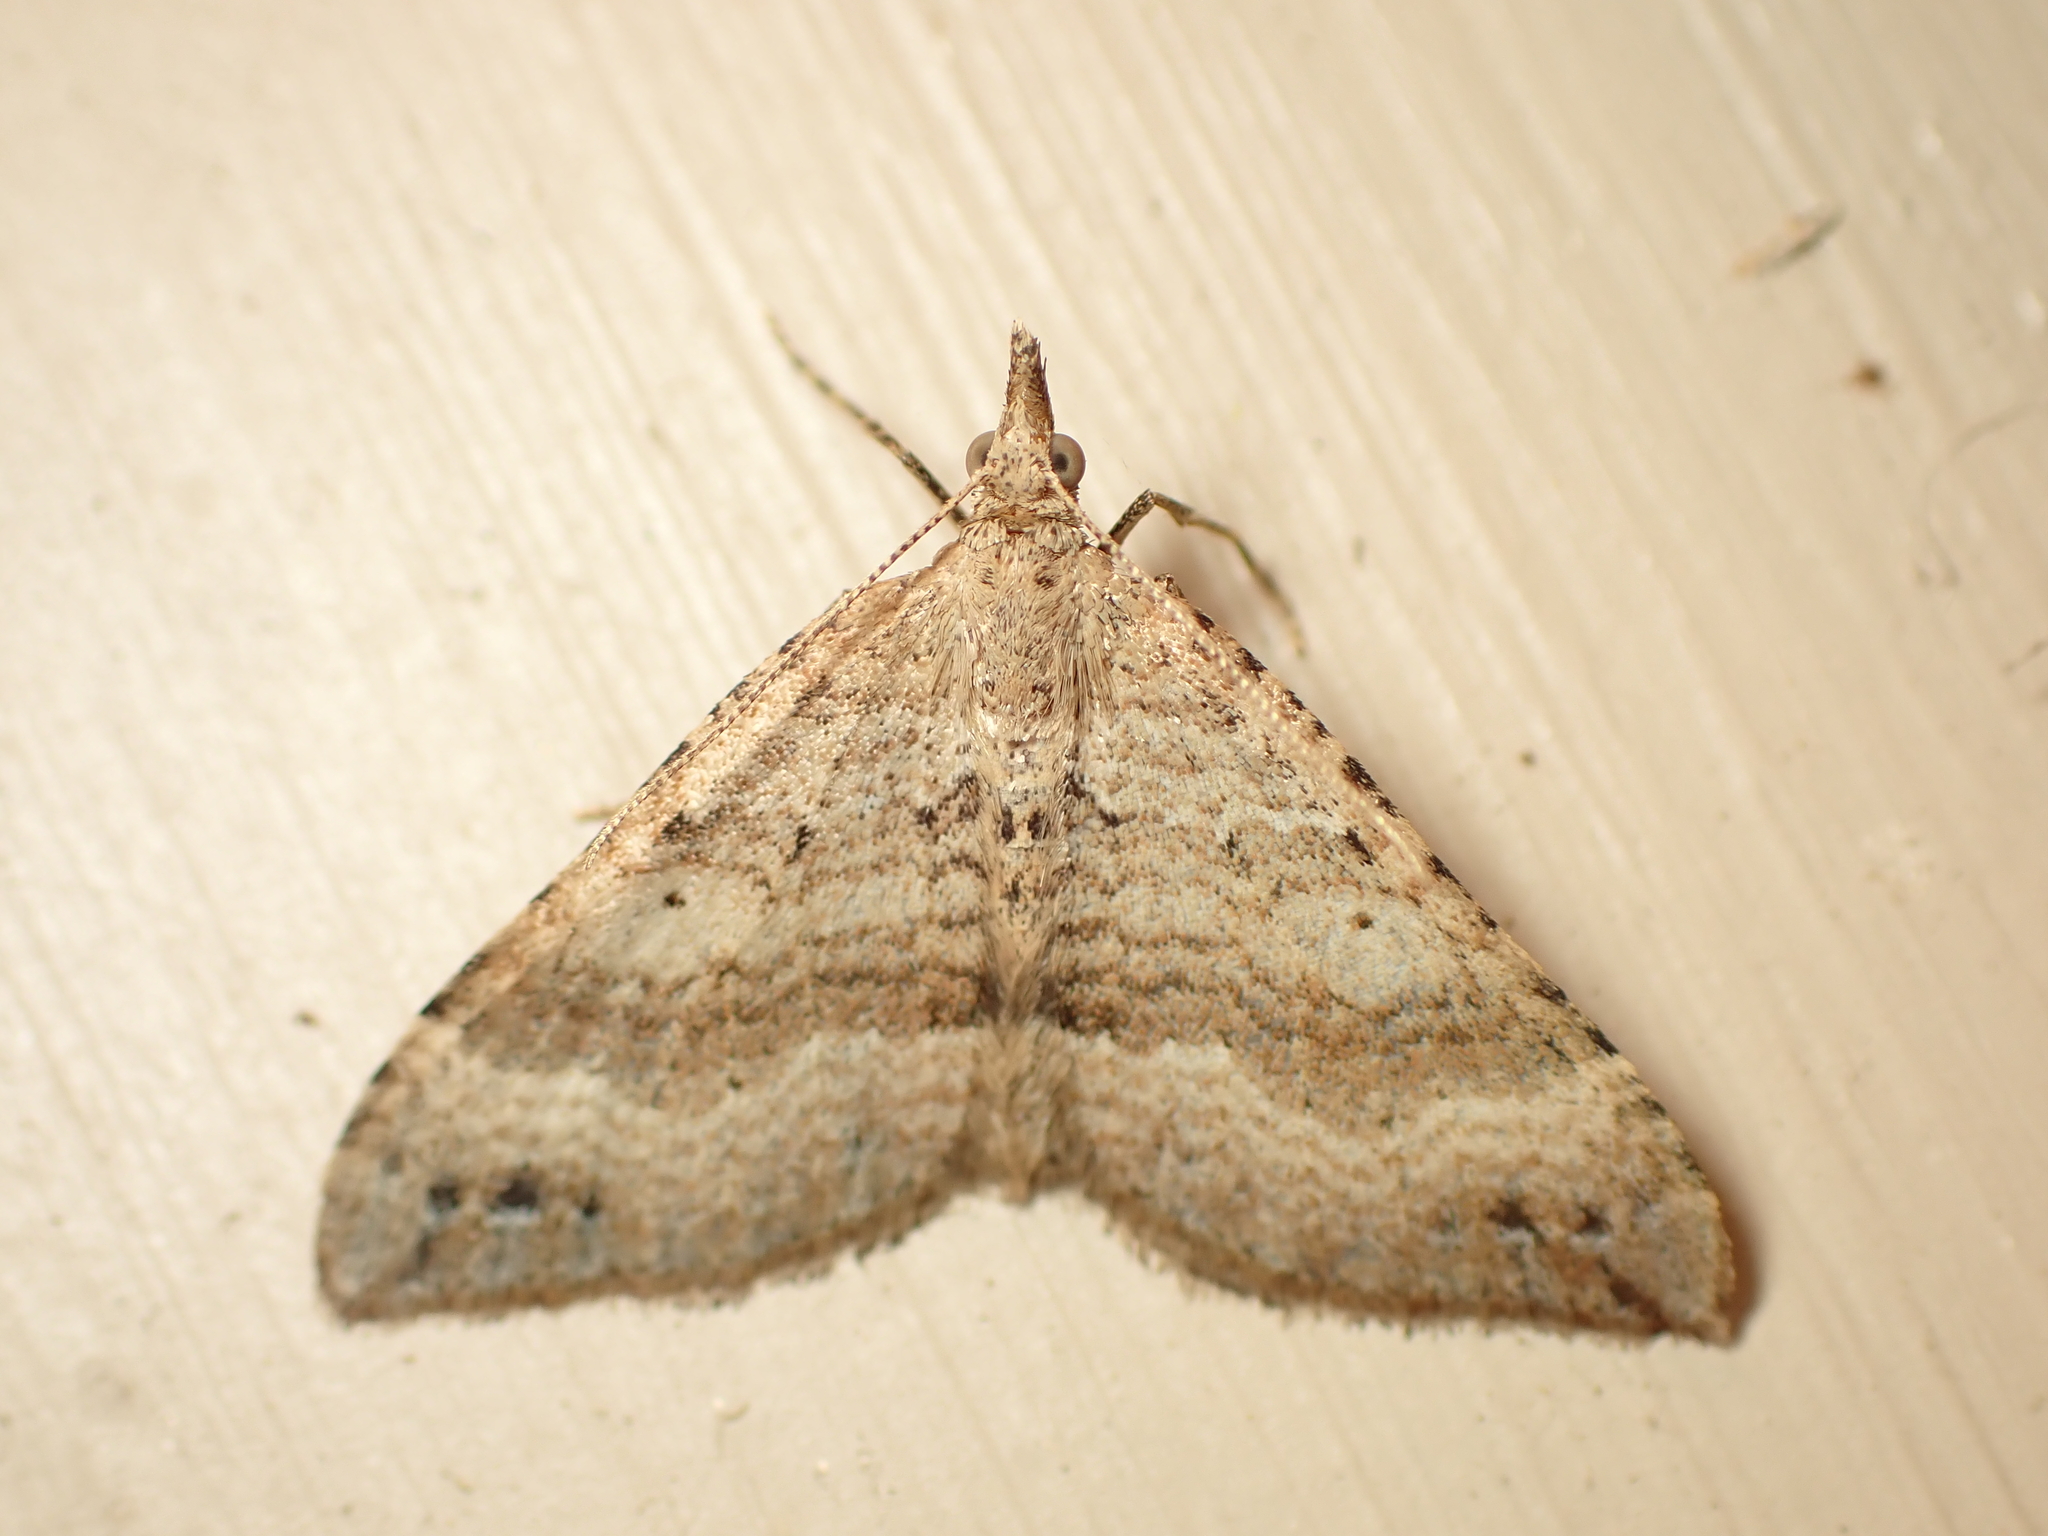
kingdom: Animalia
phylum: Arthropoda
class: Insecta
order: Lepidoptera
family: Geometridae
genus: Homodotis
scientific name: Homodotis falcata
